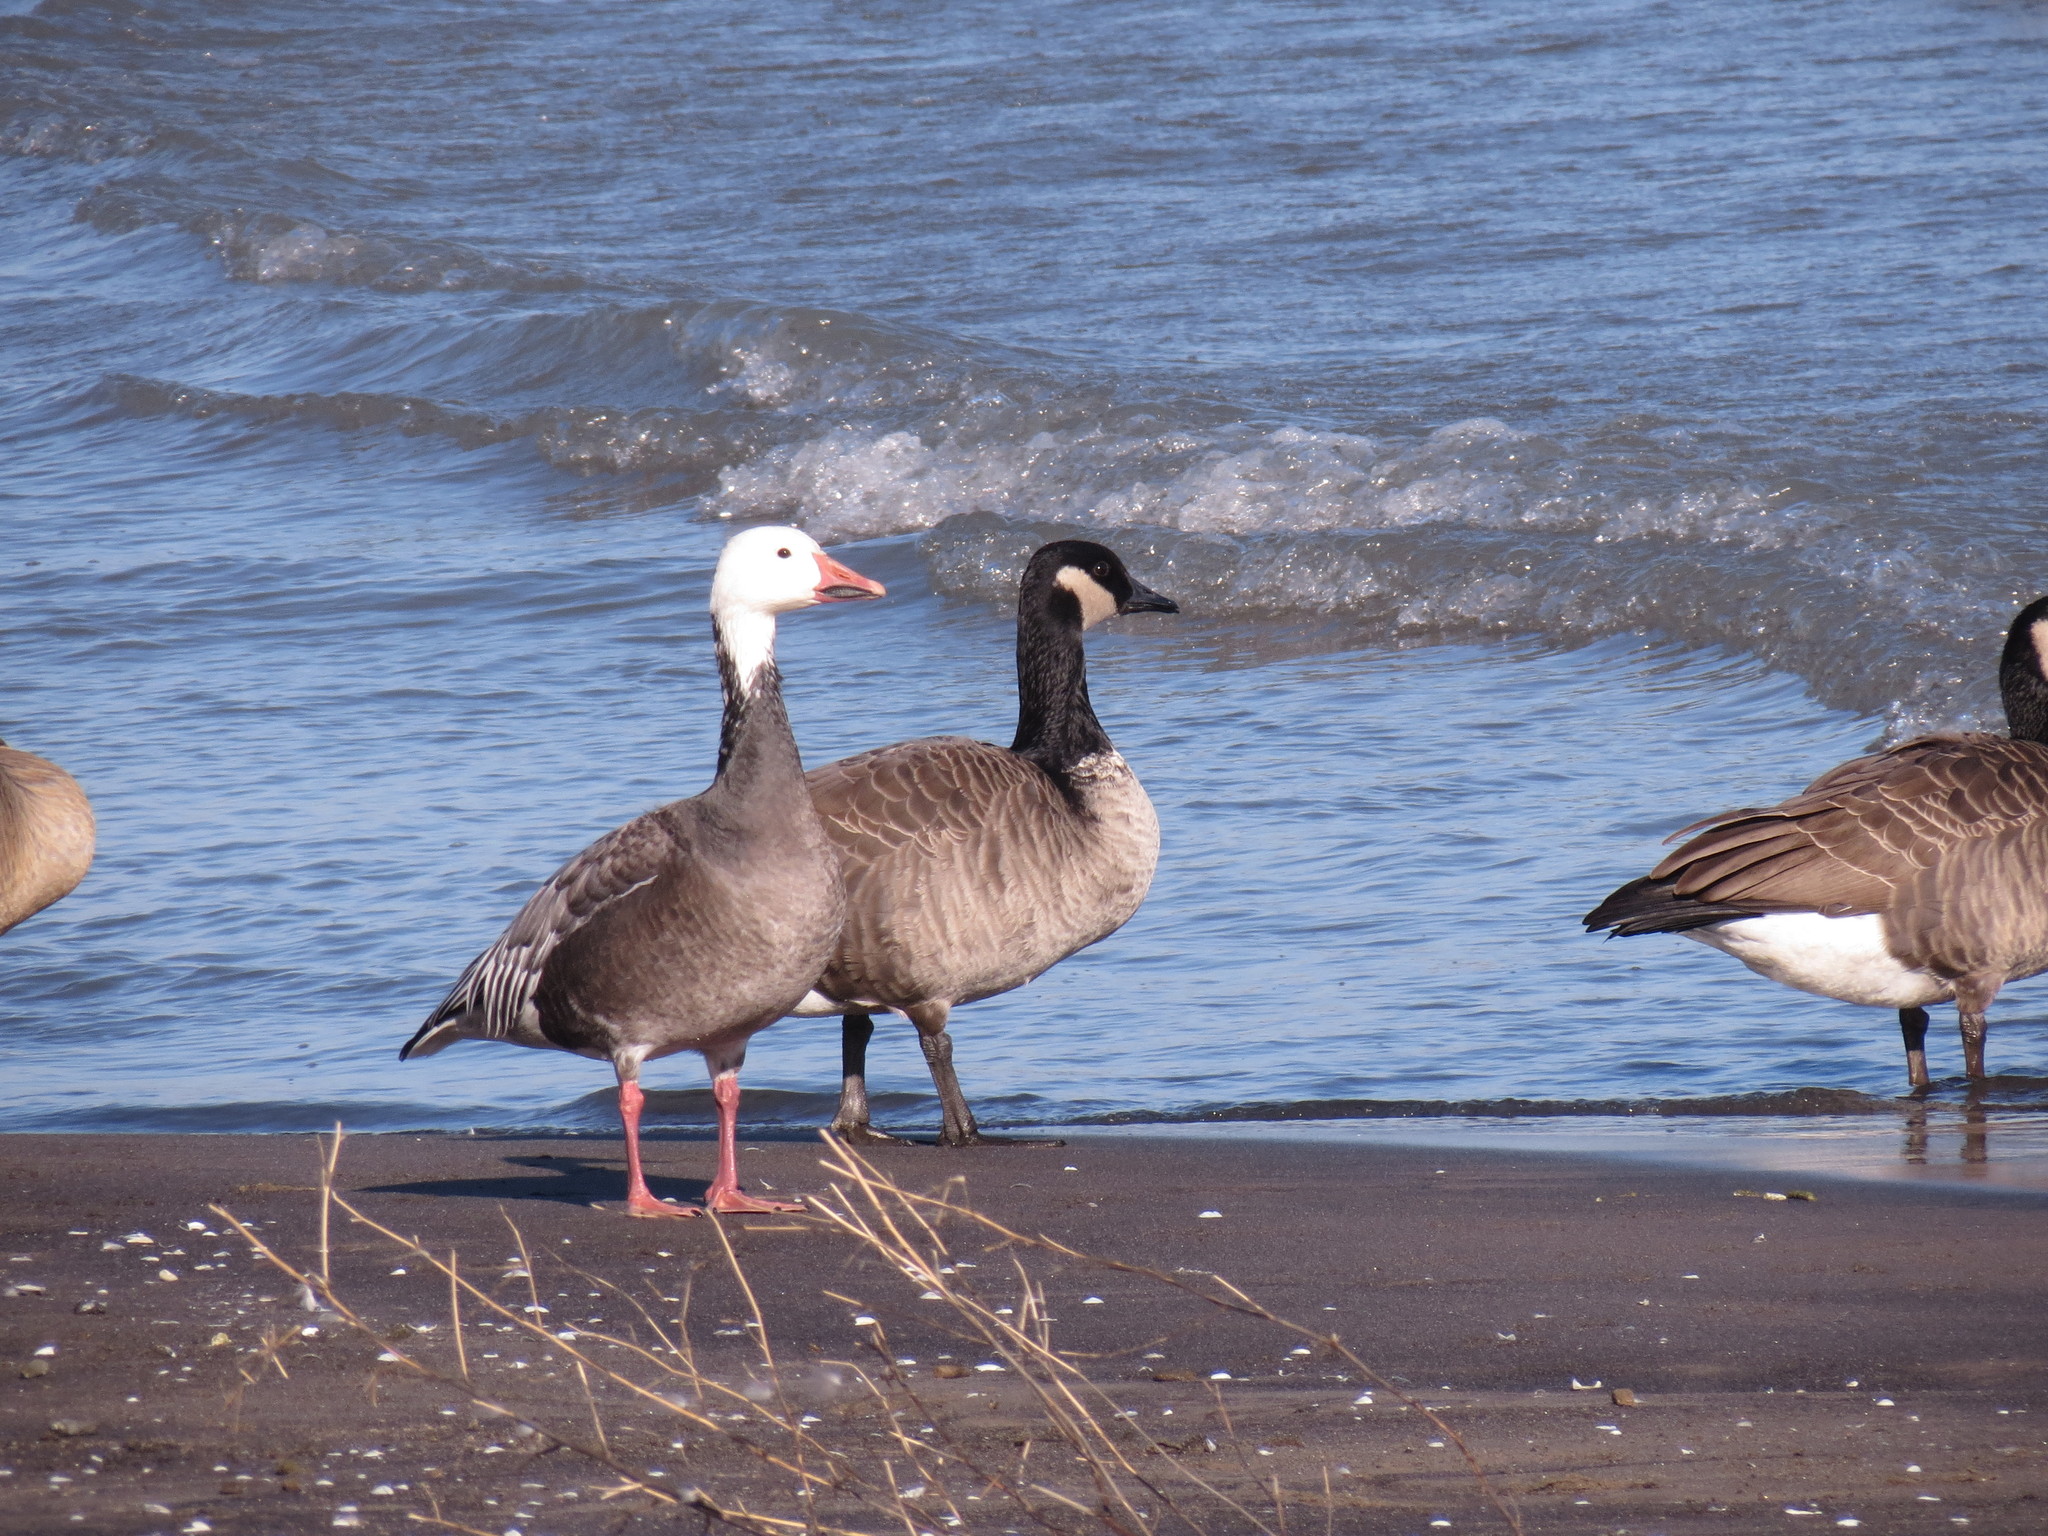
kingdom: Animalia
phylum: Chordata
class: Aves
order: Anseriformes
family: Anatidae
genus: Anser
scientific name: Anser caerulescens
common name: Snow goose
